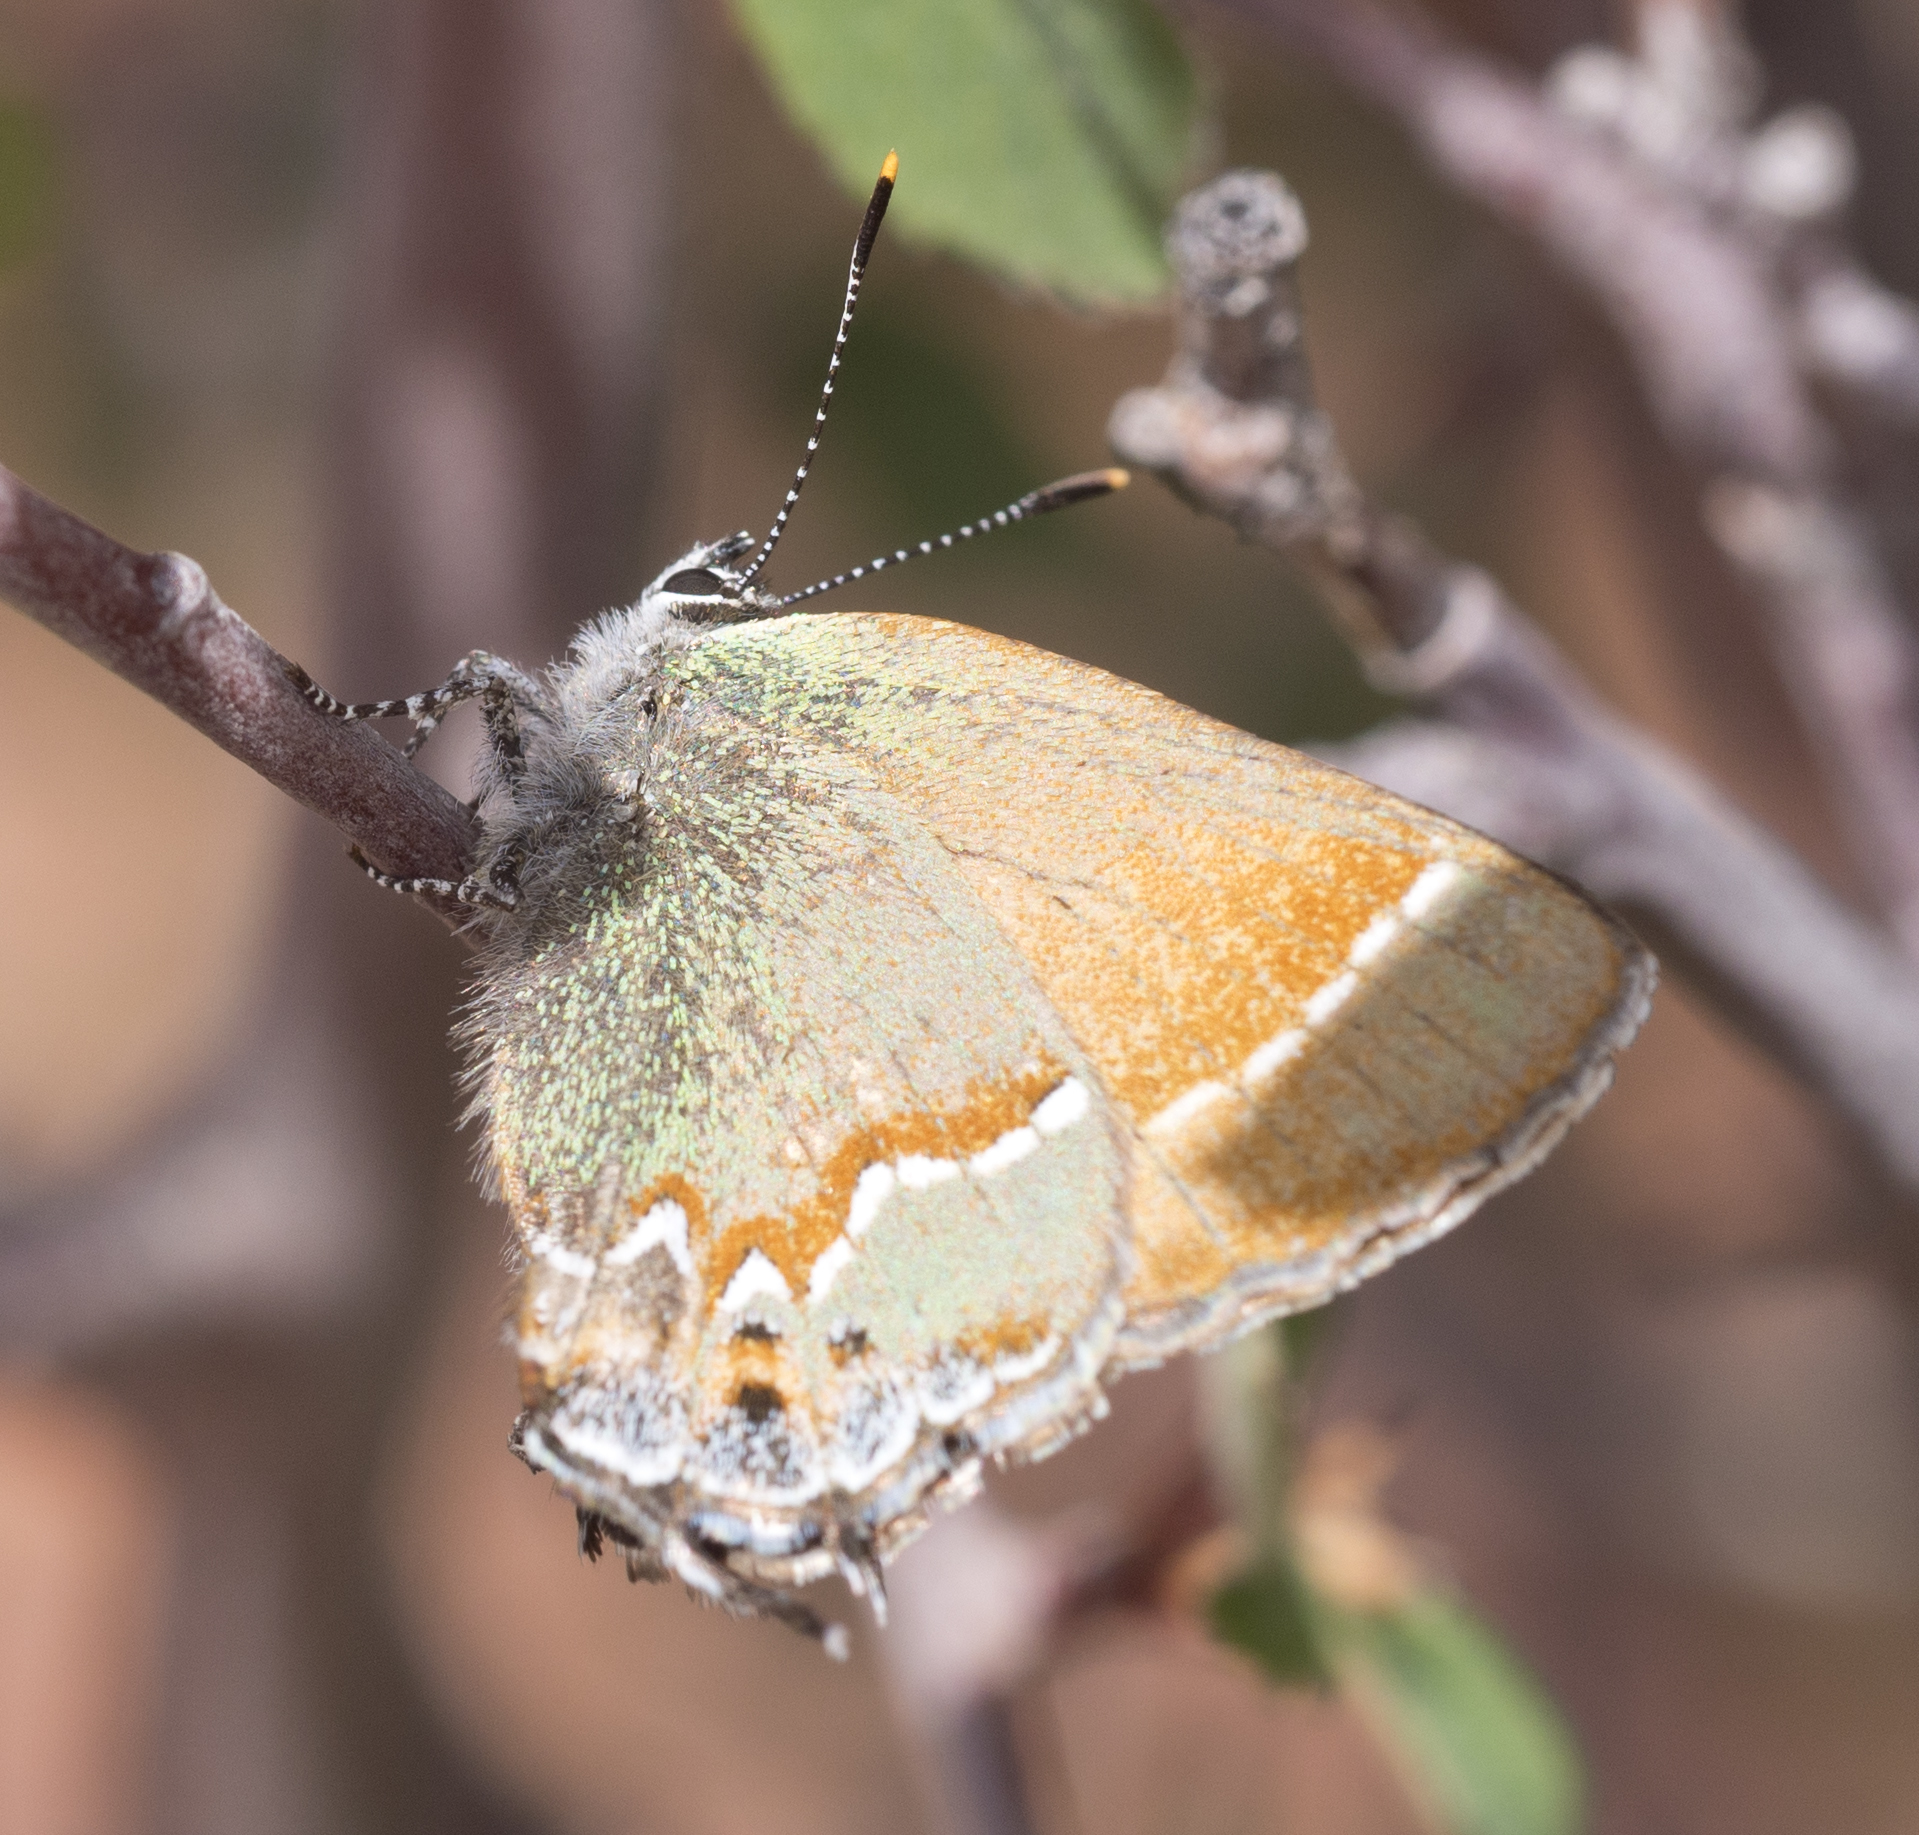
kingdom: Animalia
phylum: Arthropoda
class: Insecta
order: Lepidoptera
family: Lycaenidae
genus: Mitoura
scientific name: Mitoura siva
